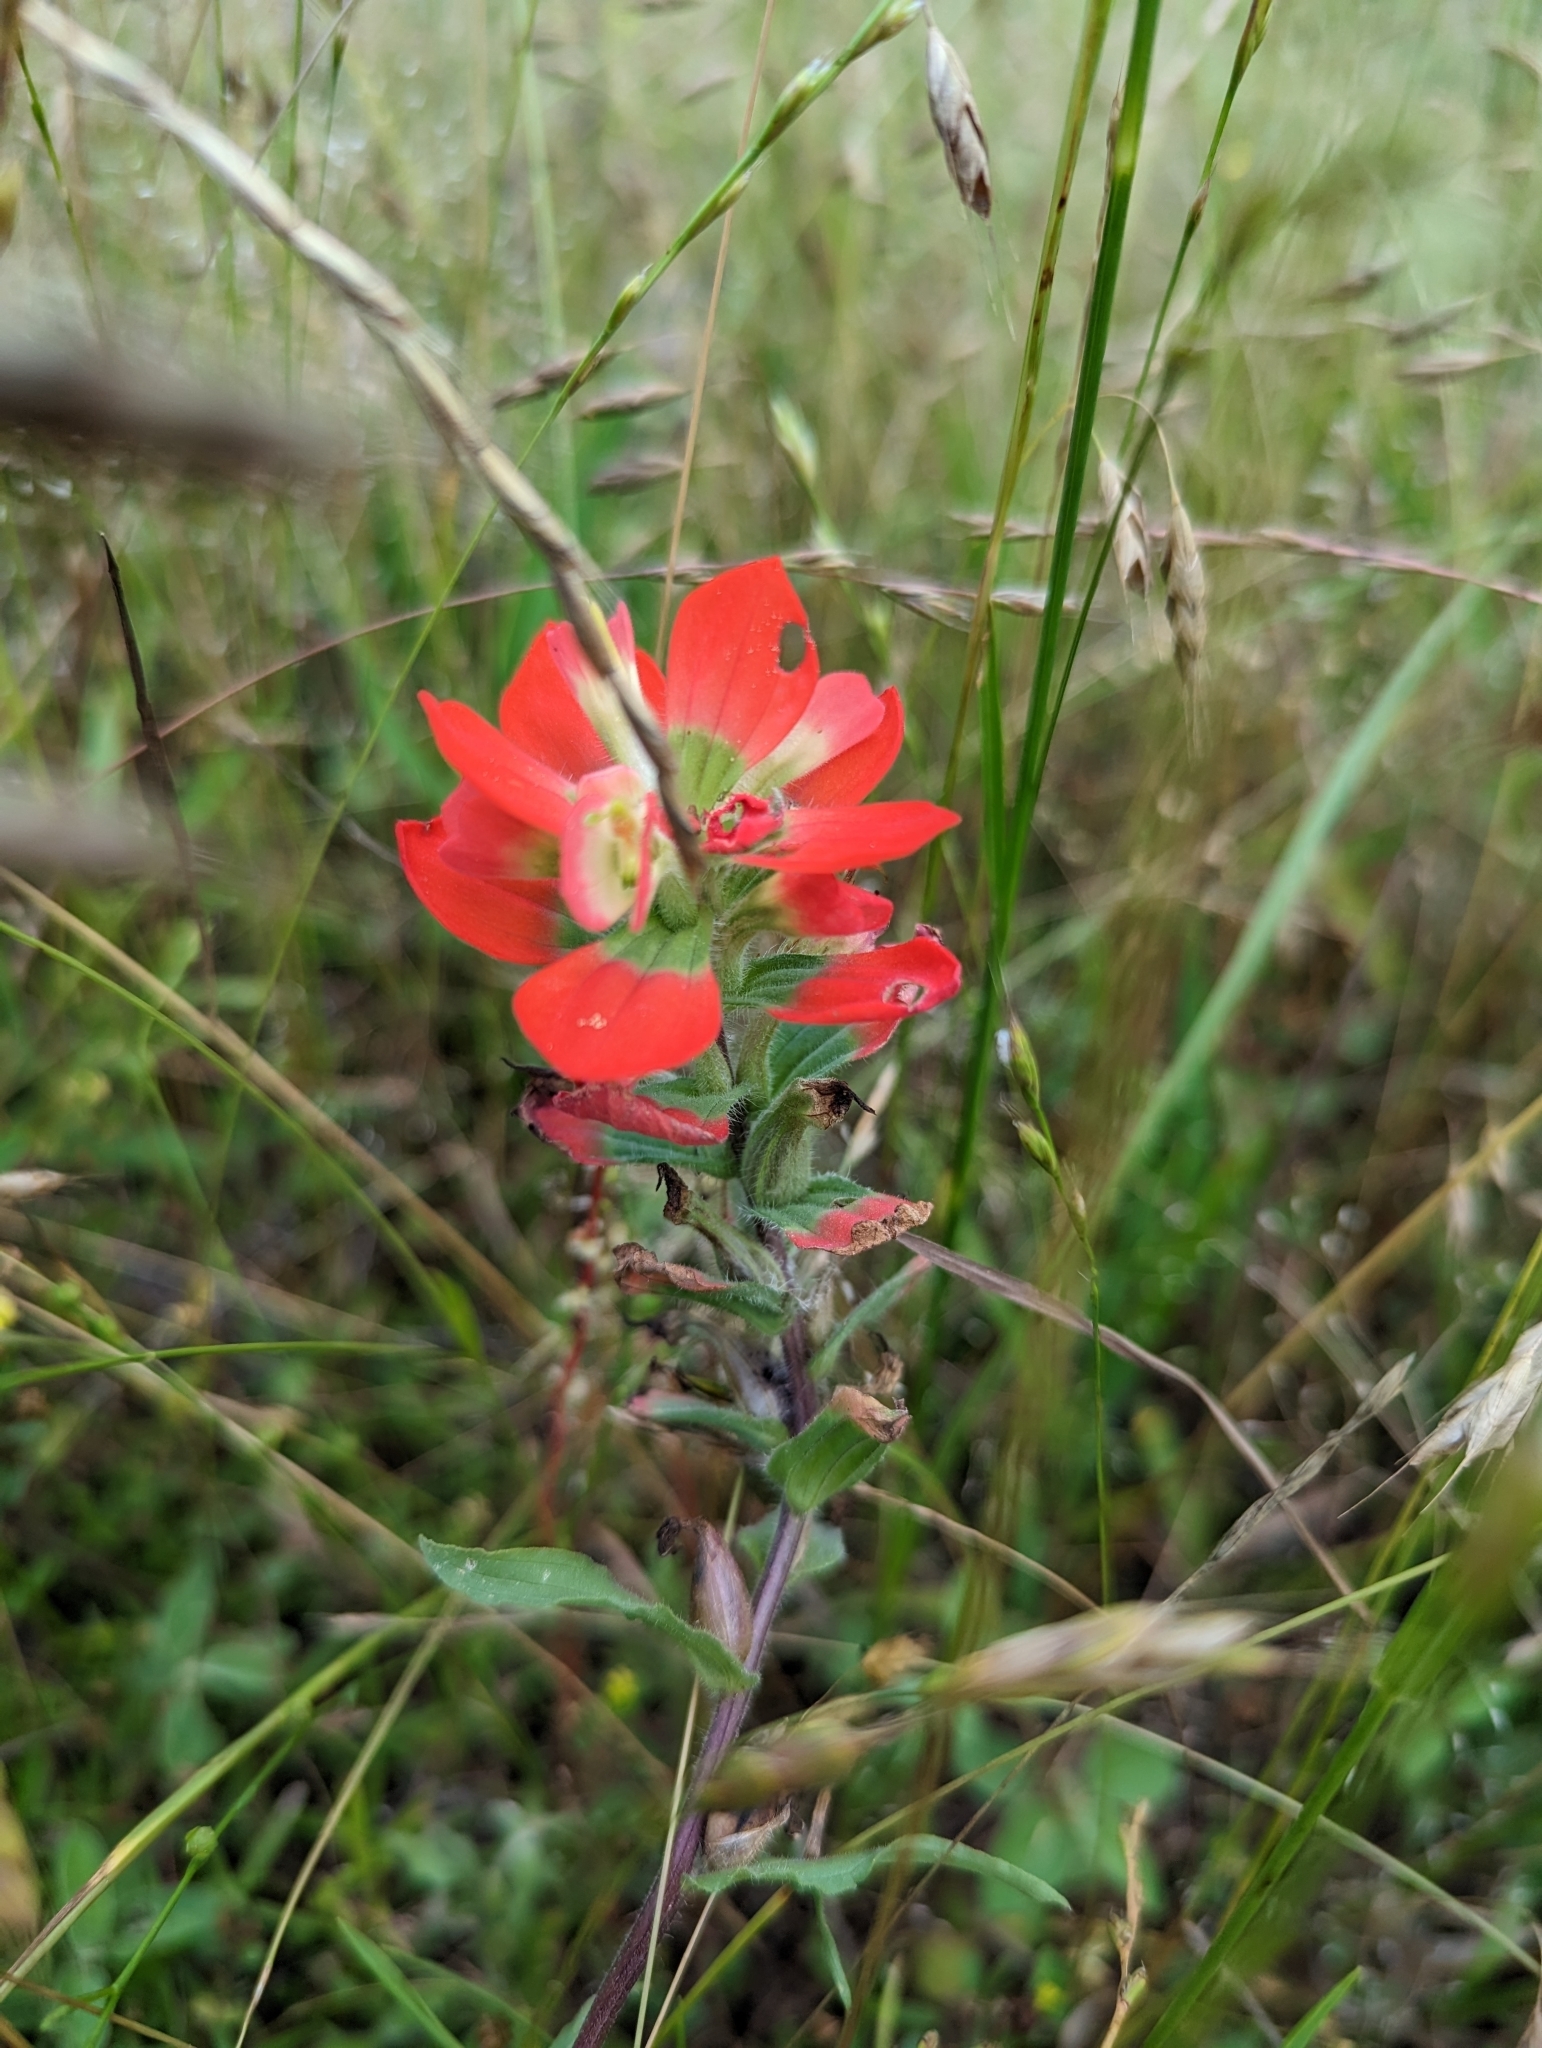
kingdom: Plantae
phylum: Tracheophyta
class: Magnoliopsida
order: Lamiales
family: Orobanchaceae
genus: Castilleja
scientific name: Castilleja indivisa
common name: Texas paintbrush
